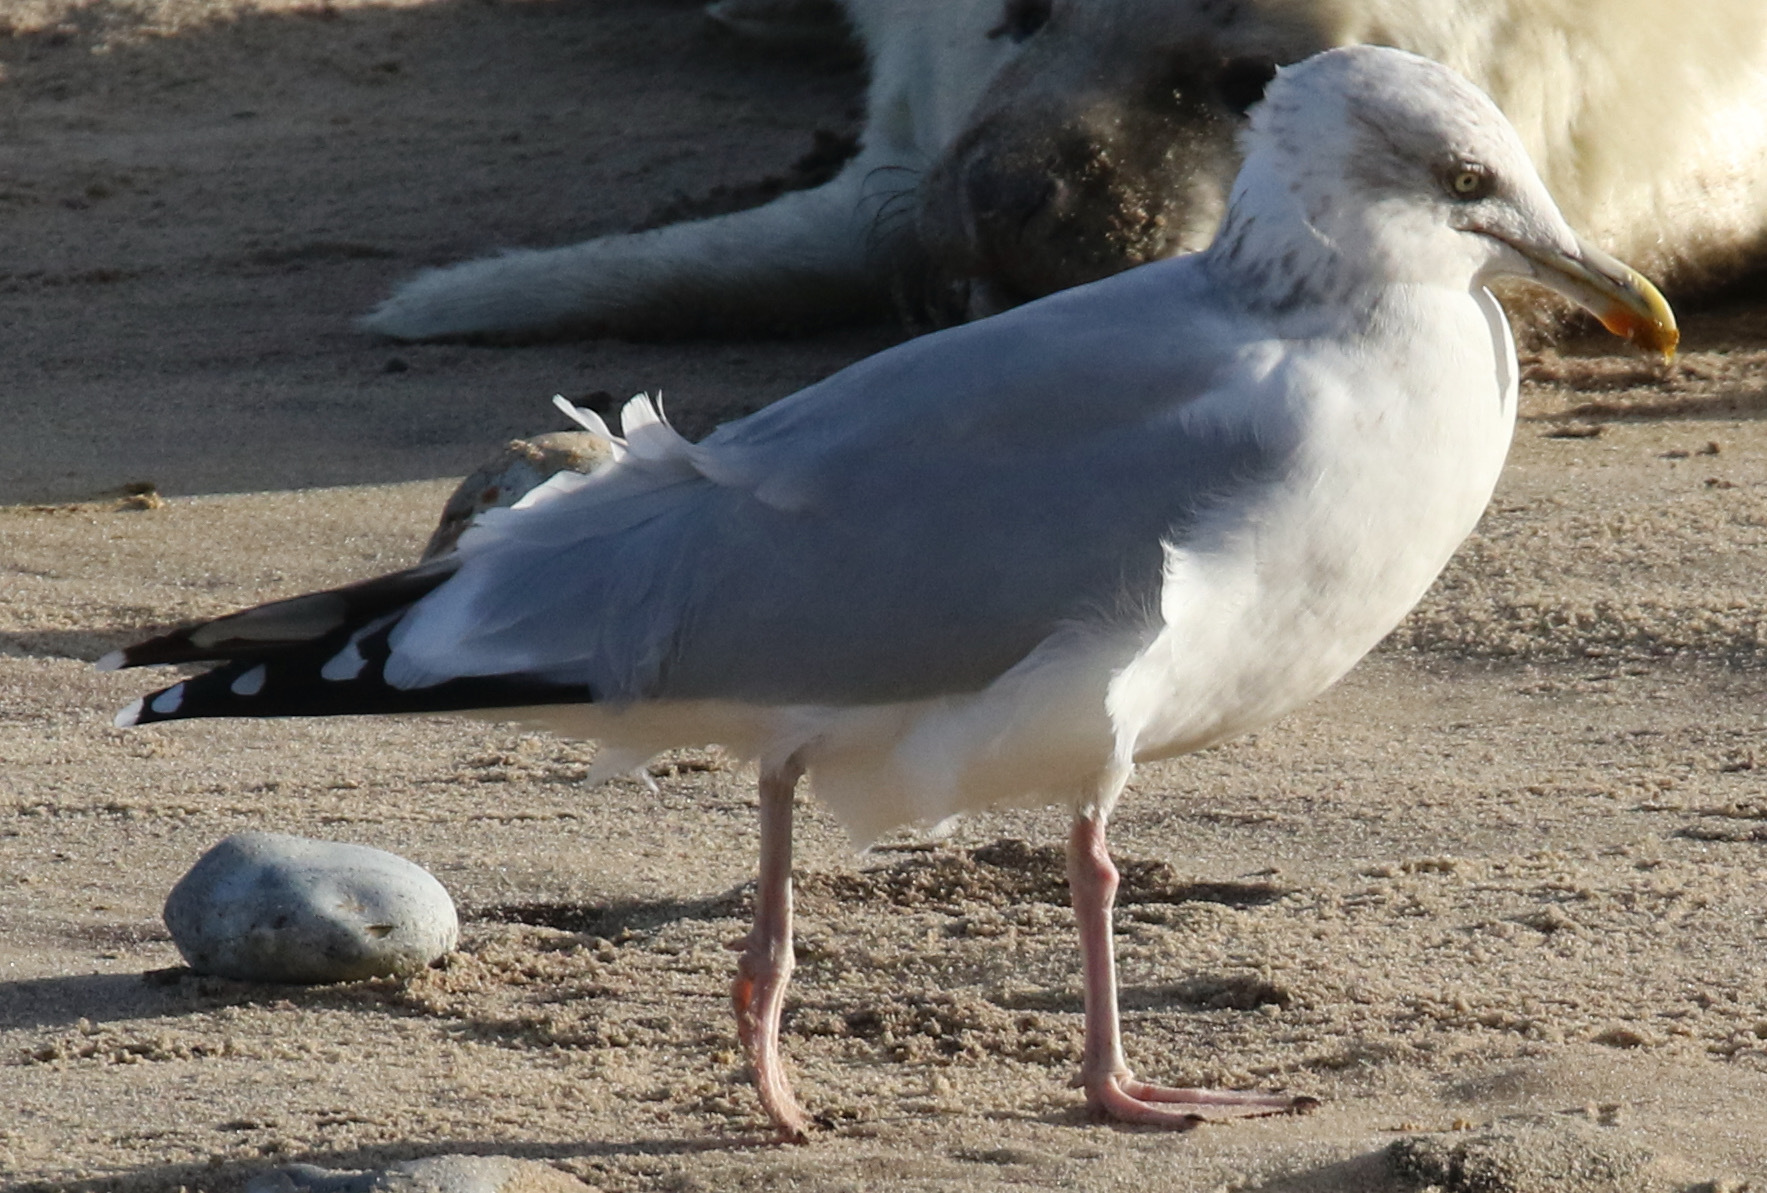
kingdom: Animalia
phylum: Chordata
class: Aves
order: Charadriiformes
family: Laridae
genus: Larus
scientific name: Larus argentatus
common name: Herring gull
